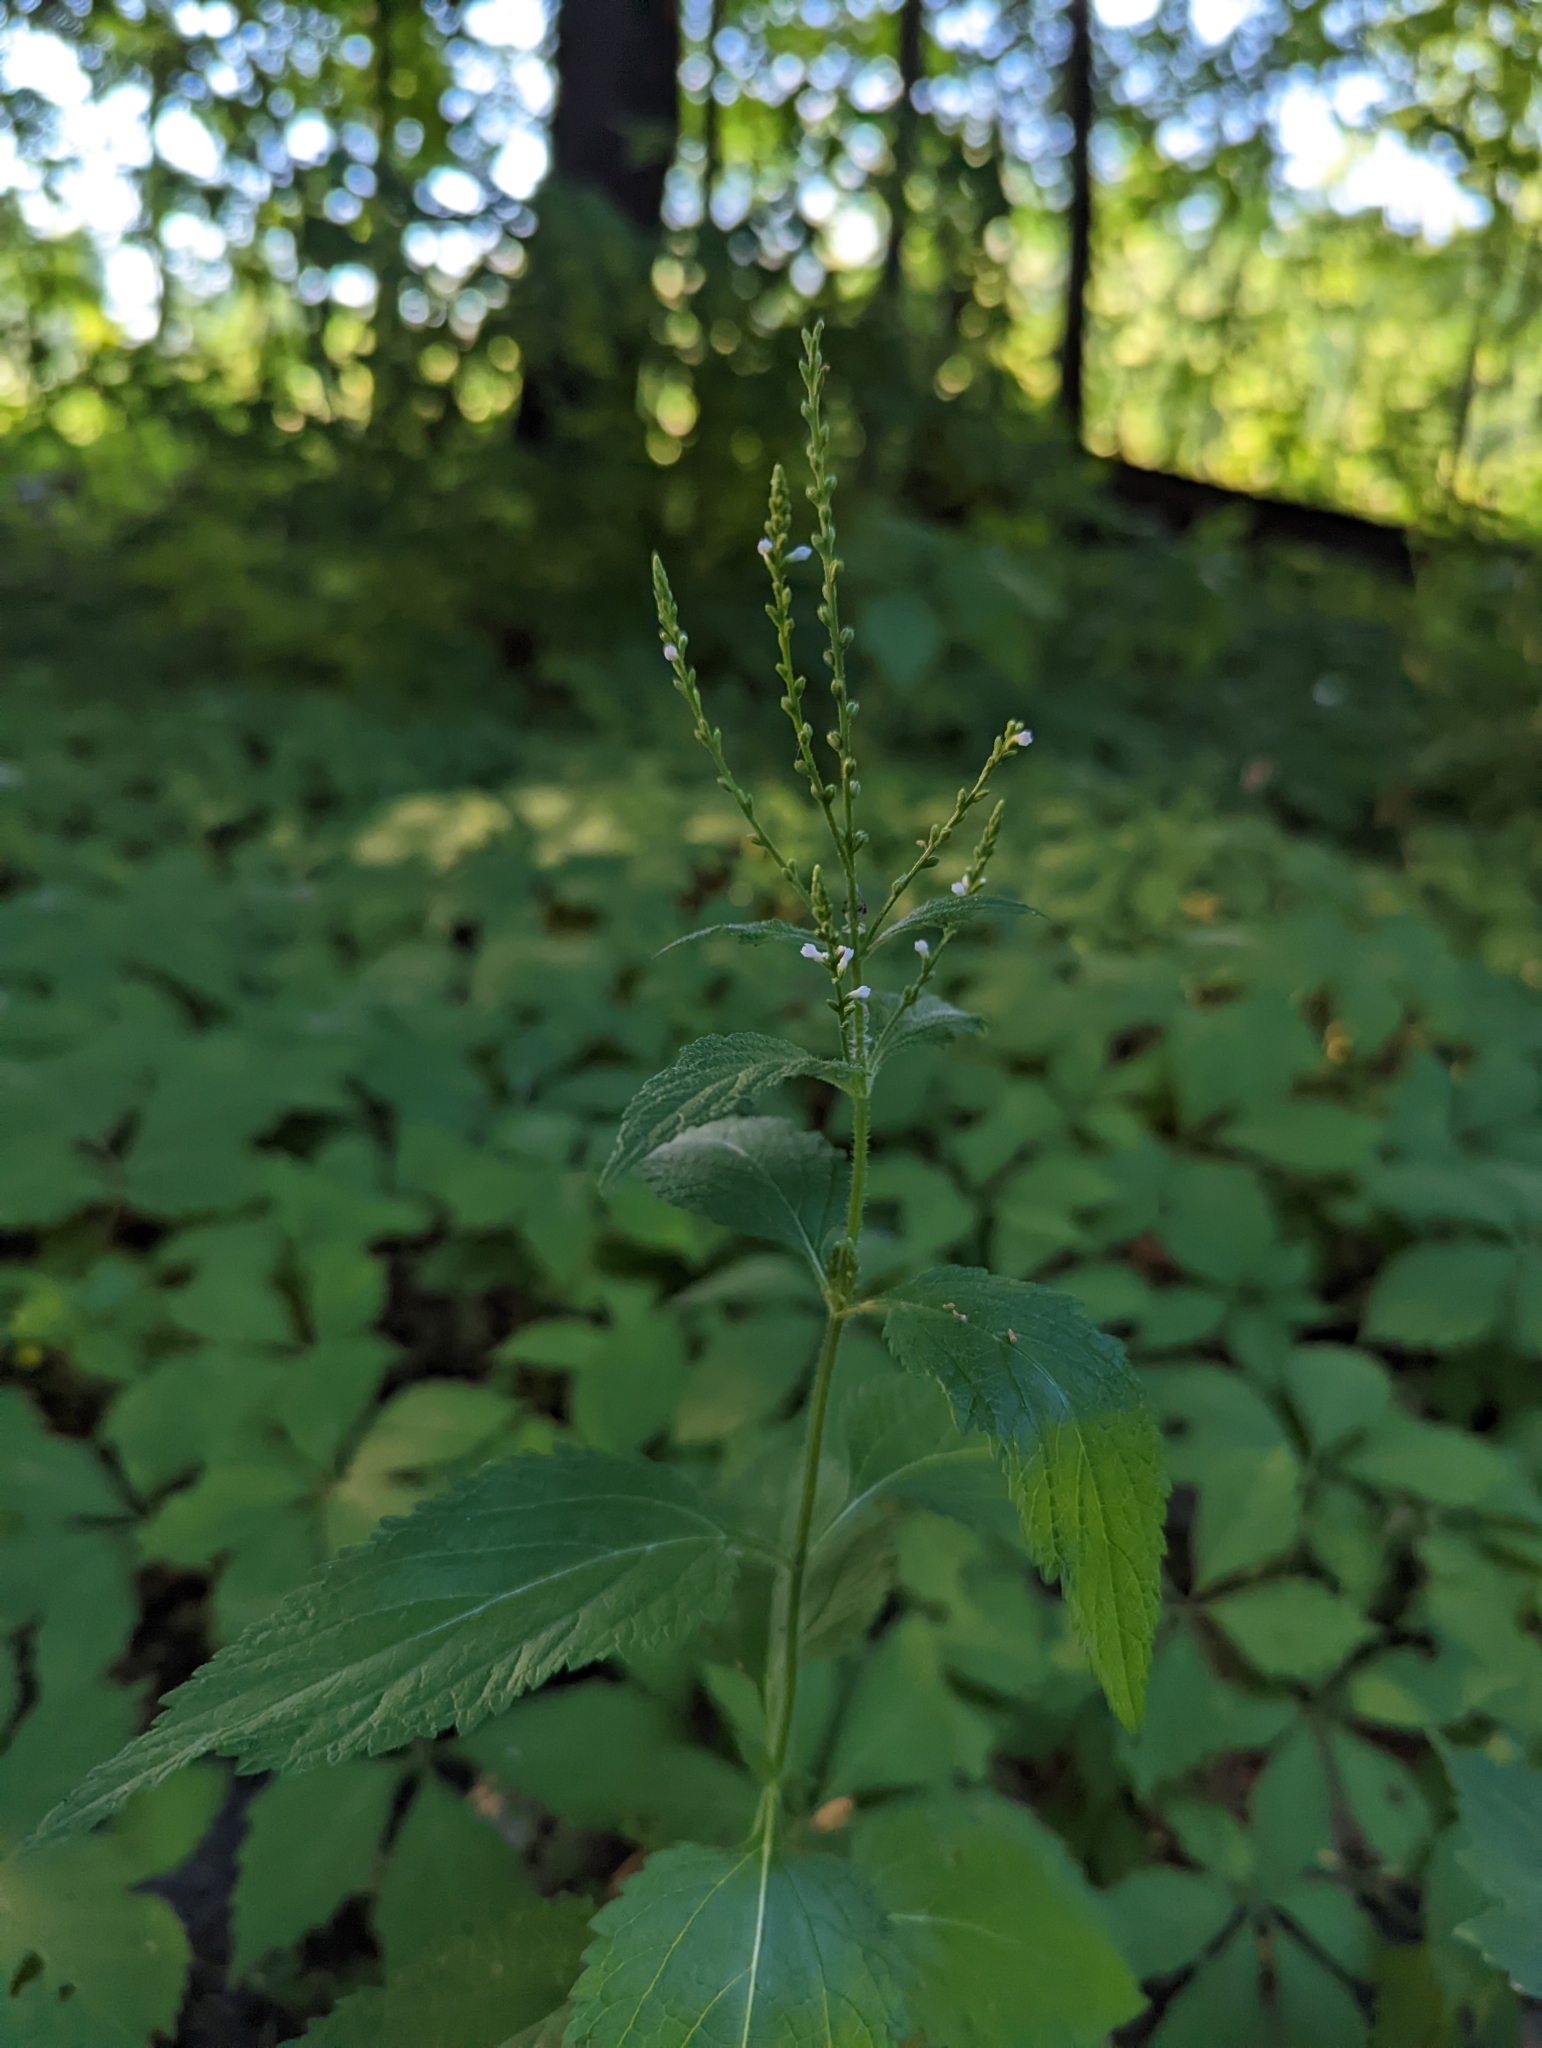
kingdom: Plantae
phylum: Tracheophyta
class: Magnoliopsida
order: Lamiales
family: Verbenaceae
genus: Verbena
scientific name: Verbena urticifolia
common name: Nettle-leaved vervain
